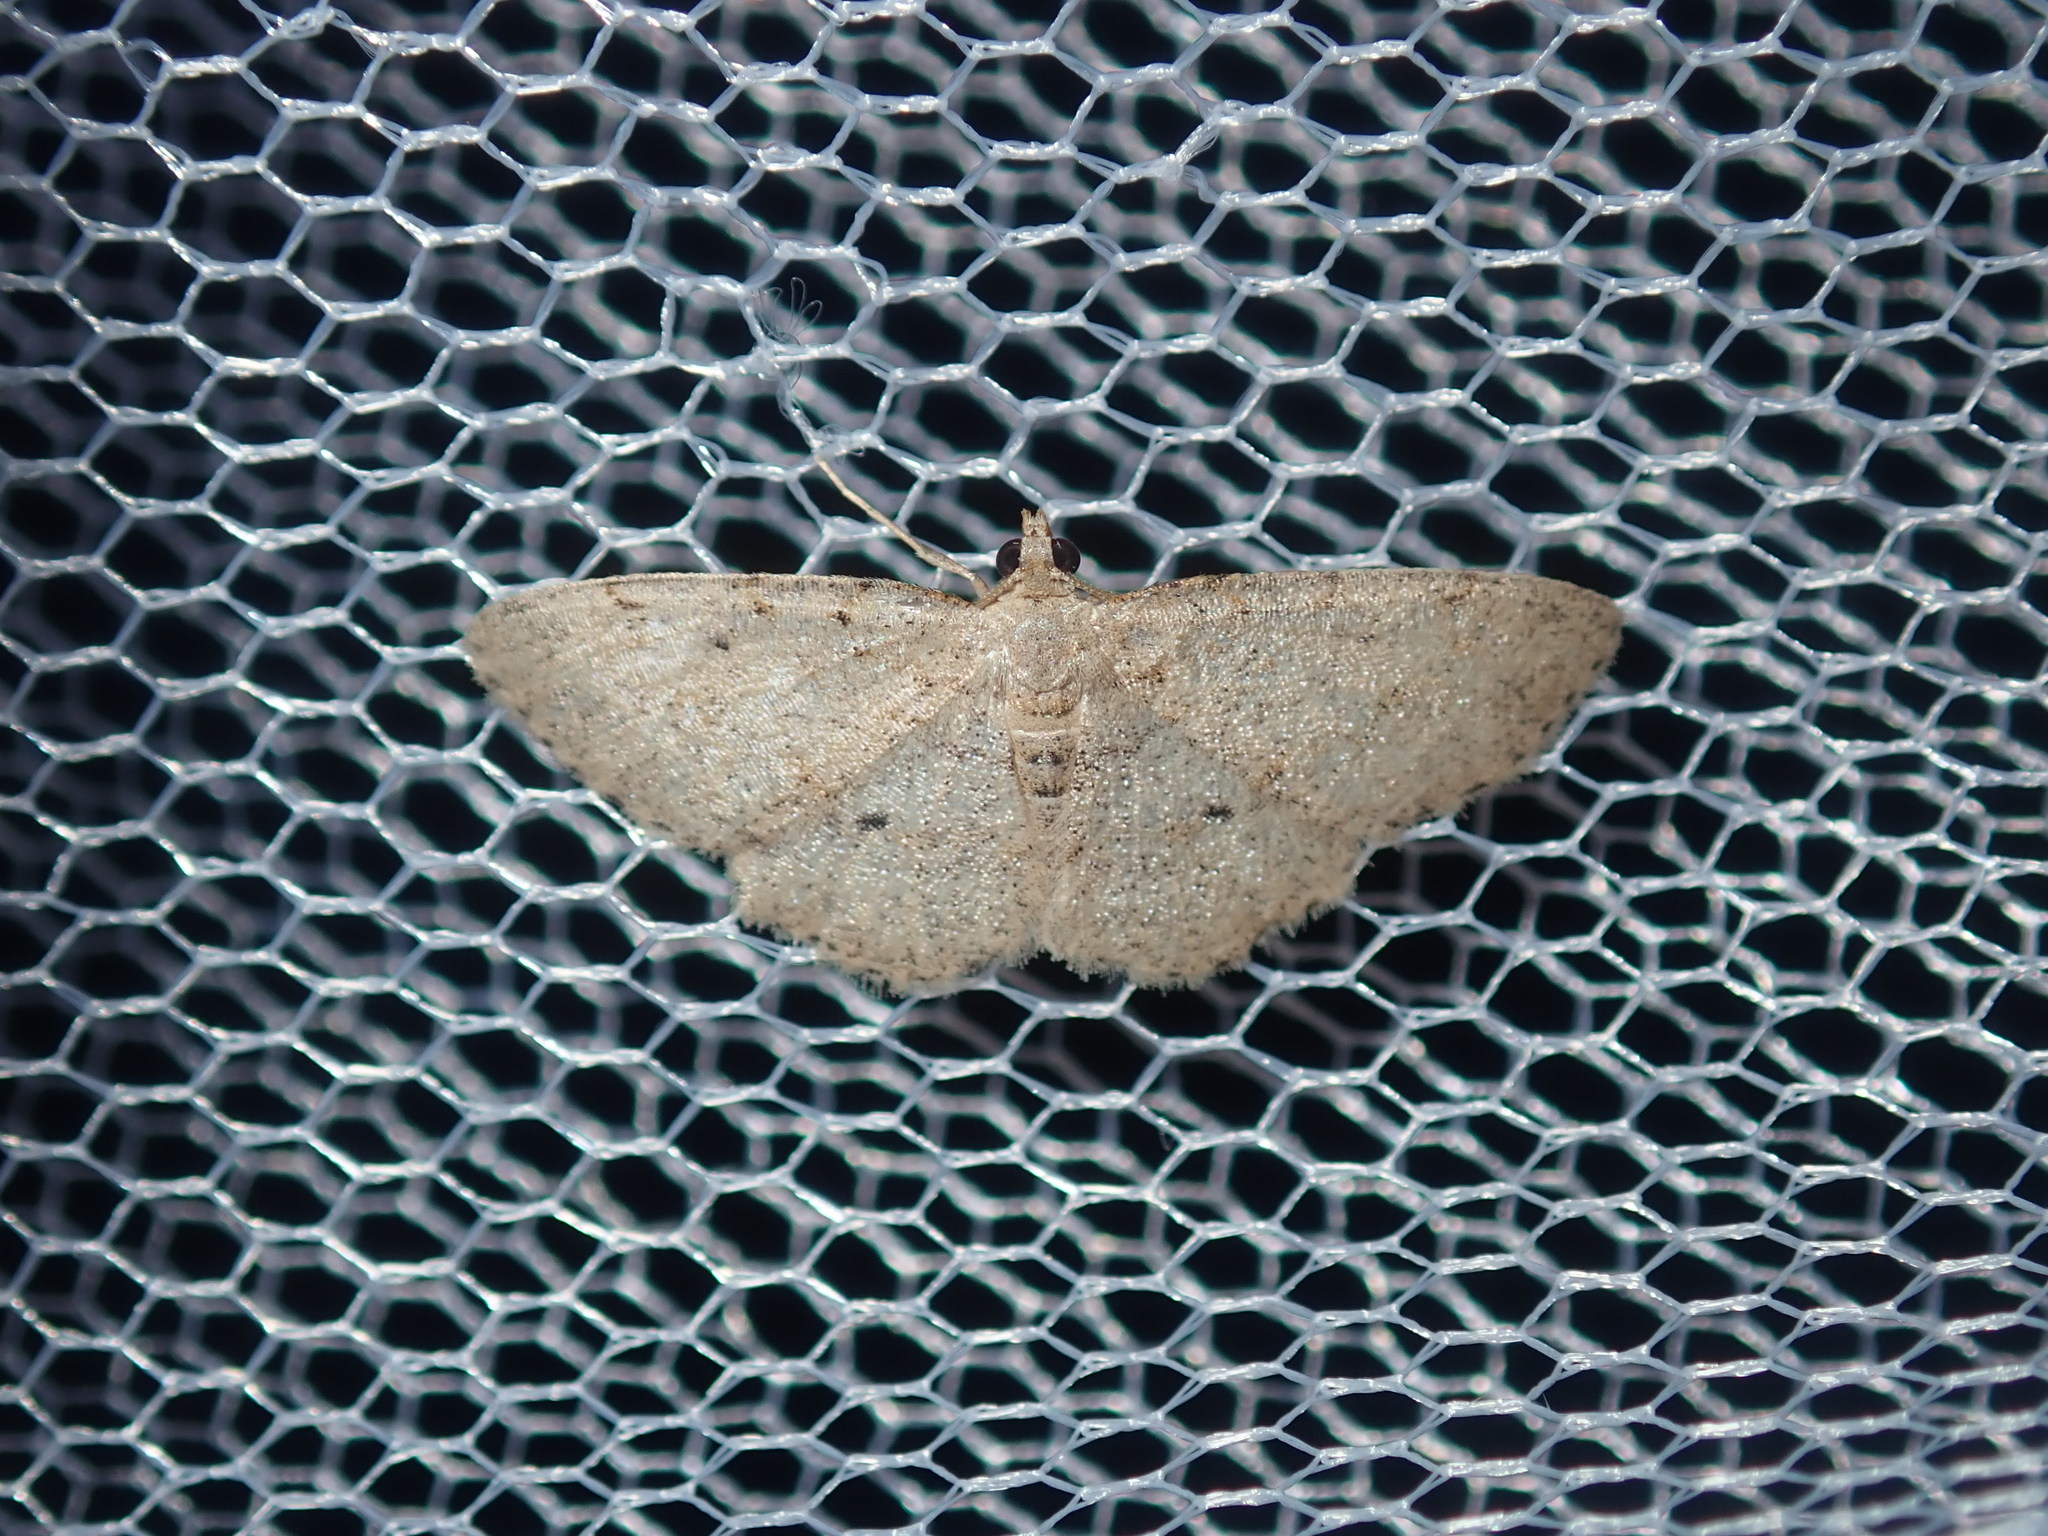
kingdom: Animalia
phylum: Arthropoda
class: Insecta
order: Lepidoptera
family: Geometridae
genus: Ectropis
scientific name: Ectropis argalea
